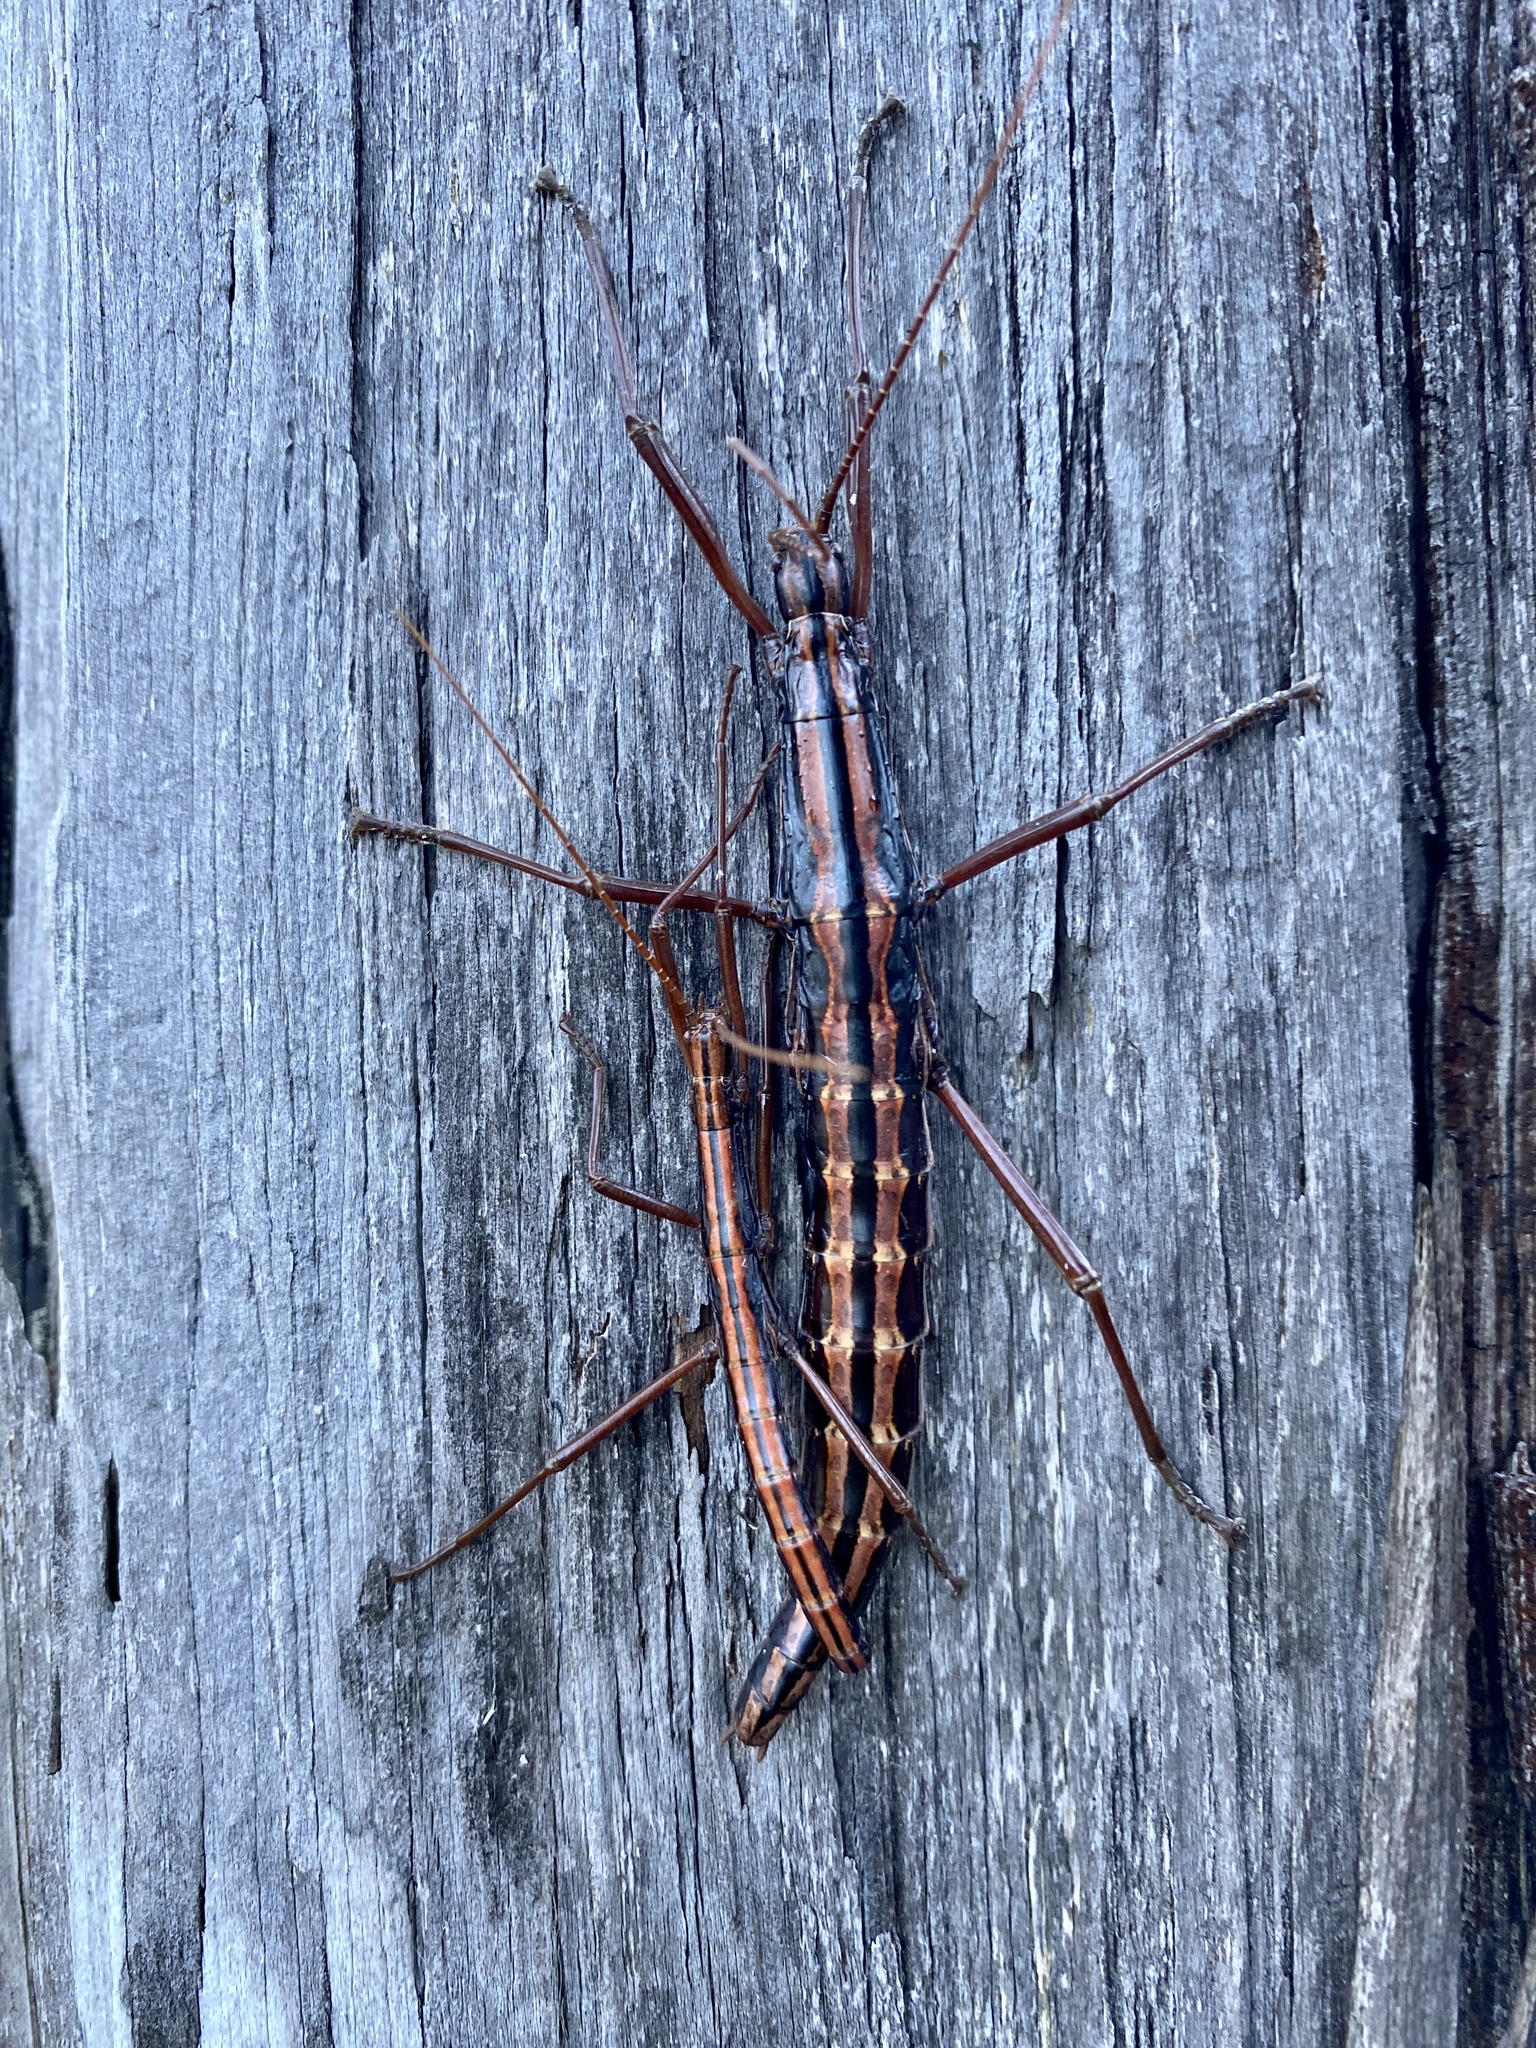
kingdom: Animalia
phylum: Arthropoda
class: Insecta
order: Phasmida
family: Pseudophasmatidae
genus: Anisomorpha
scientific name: Anisomorpha buprestoides
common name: Florida stick insect
